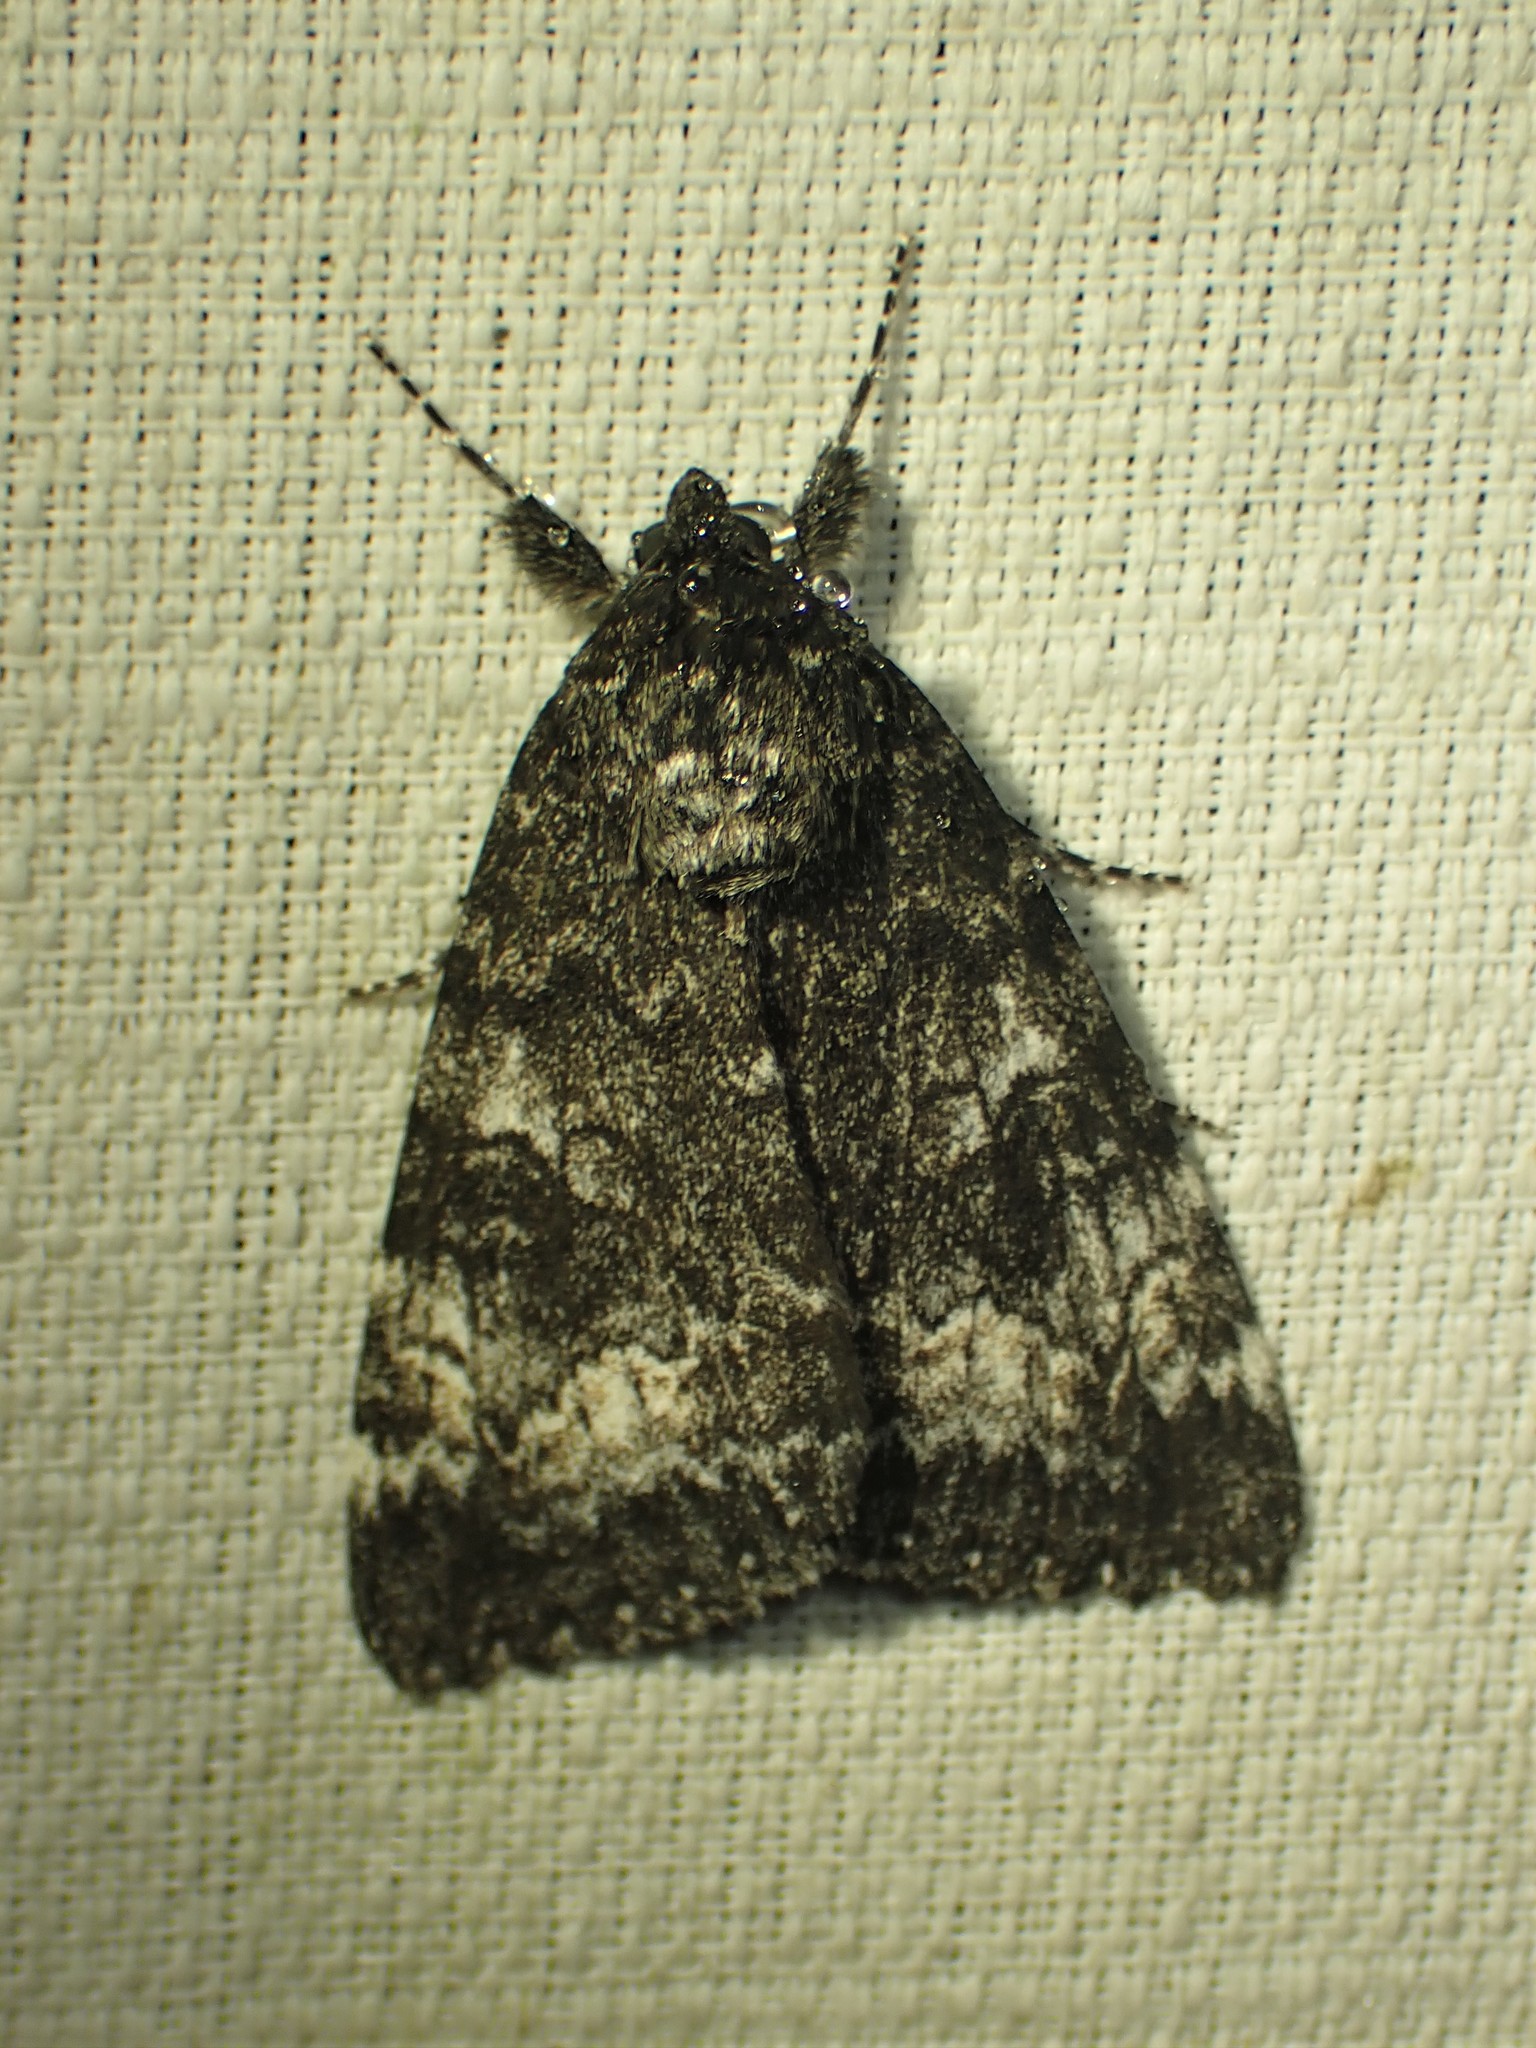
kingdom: Animalia
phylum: Arthropoda
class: Insecta
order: Lepidoptera
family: Erebidae
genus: Catocala
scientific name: Catocala briseis
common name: Briseis underwing
